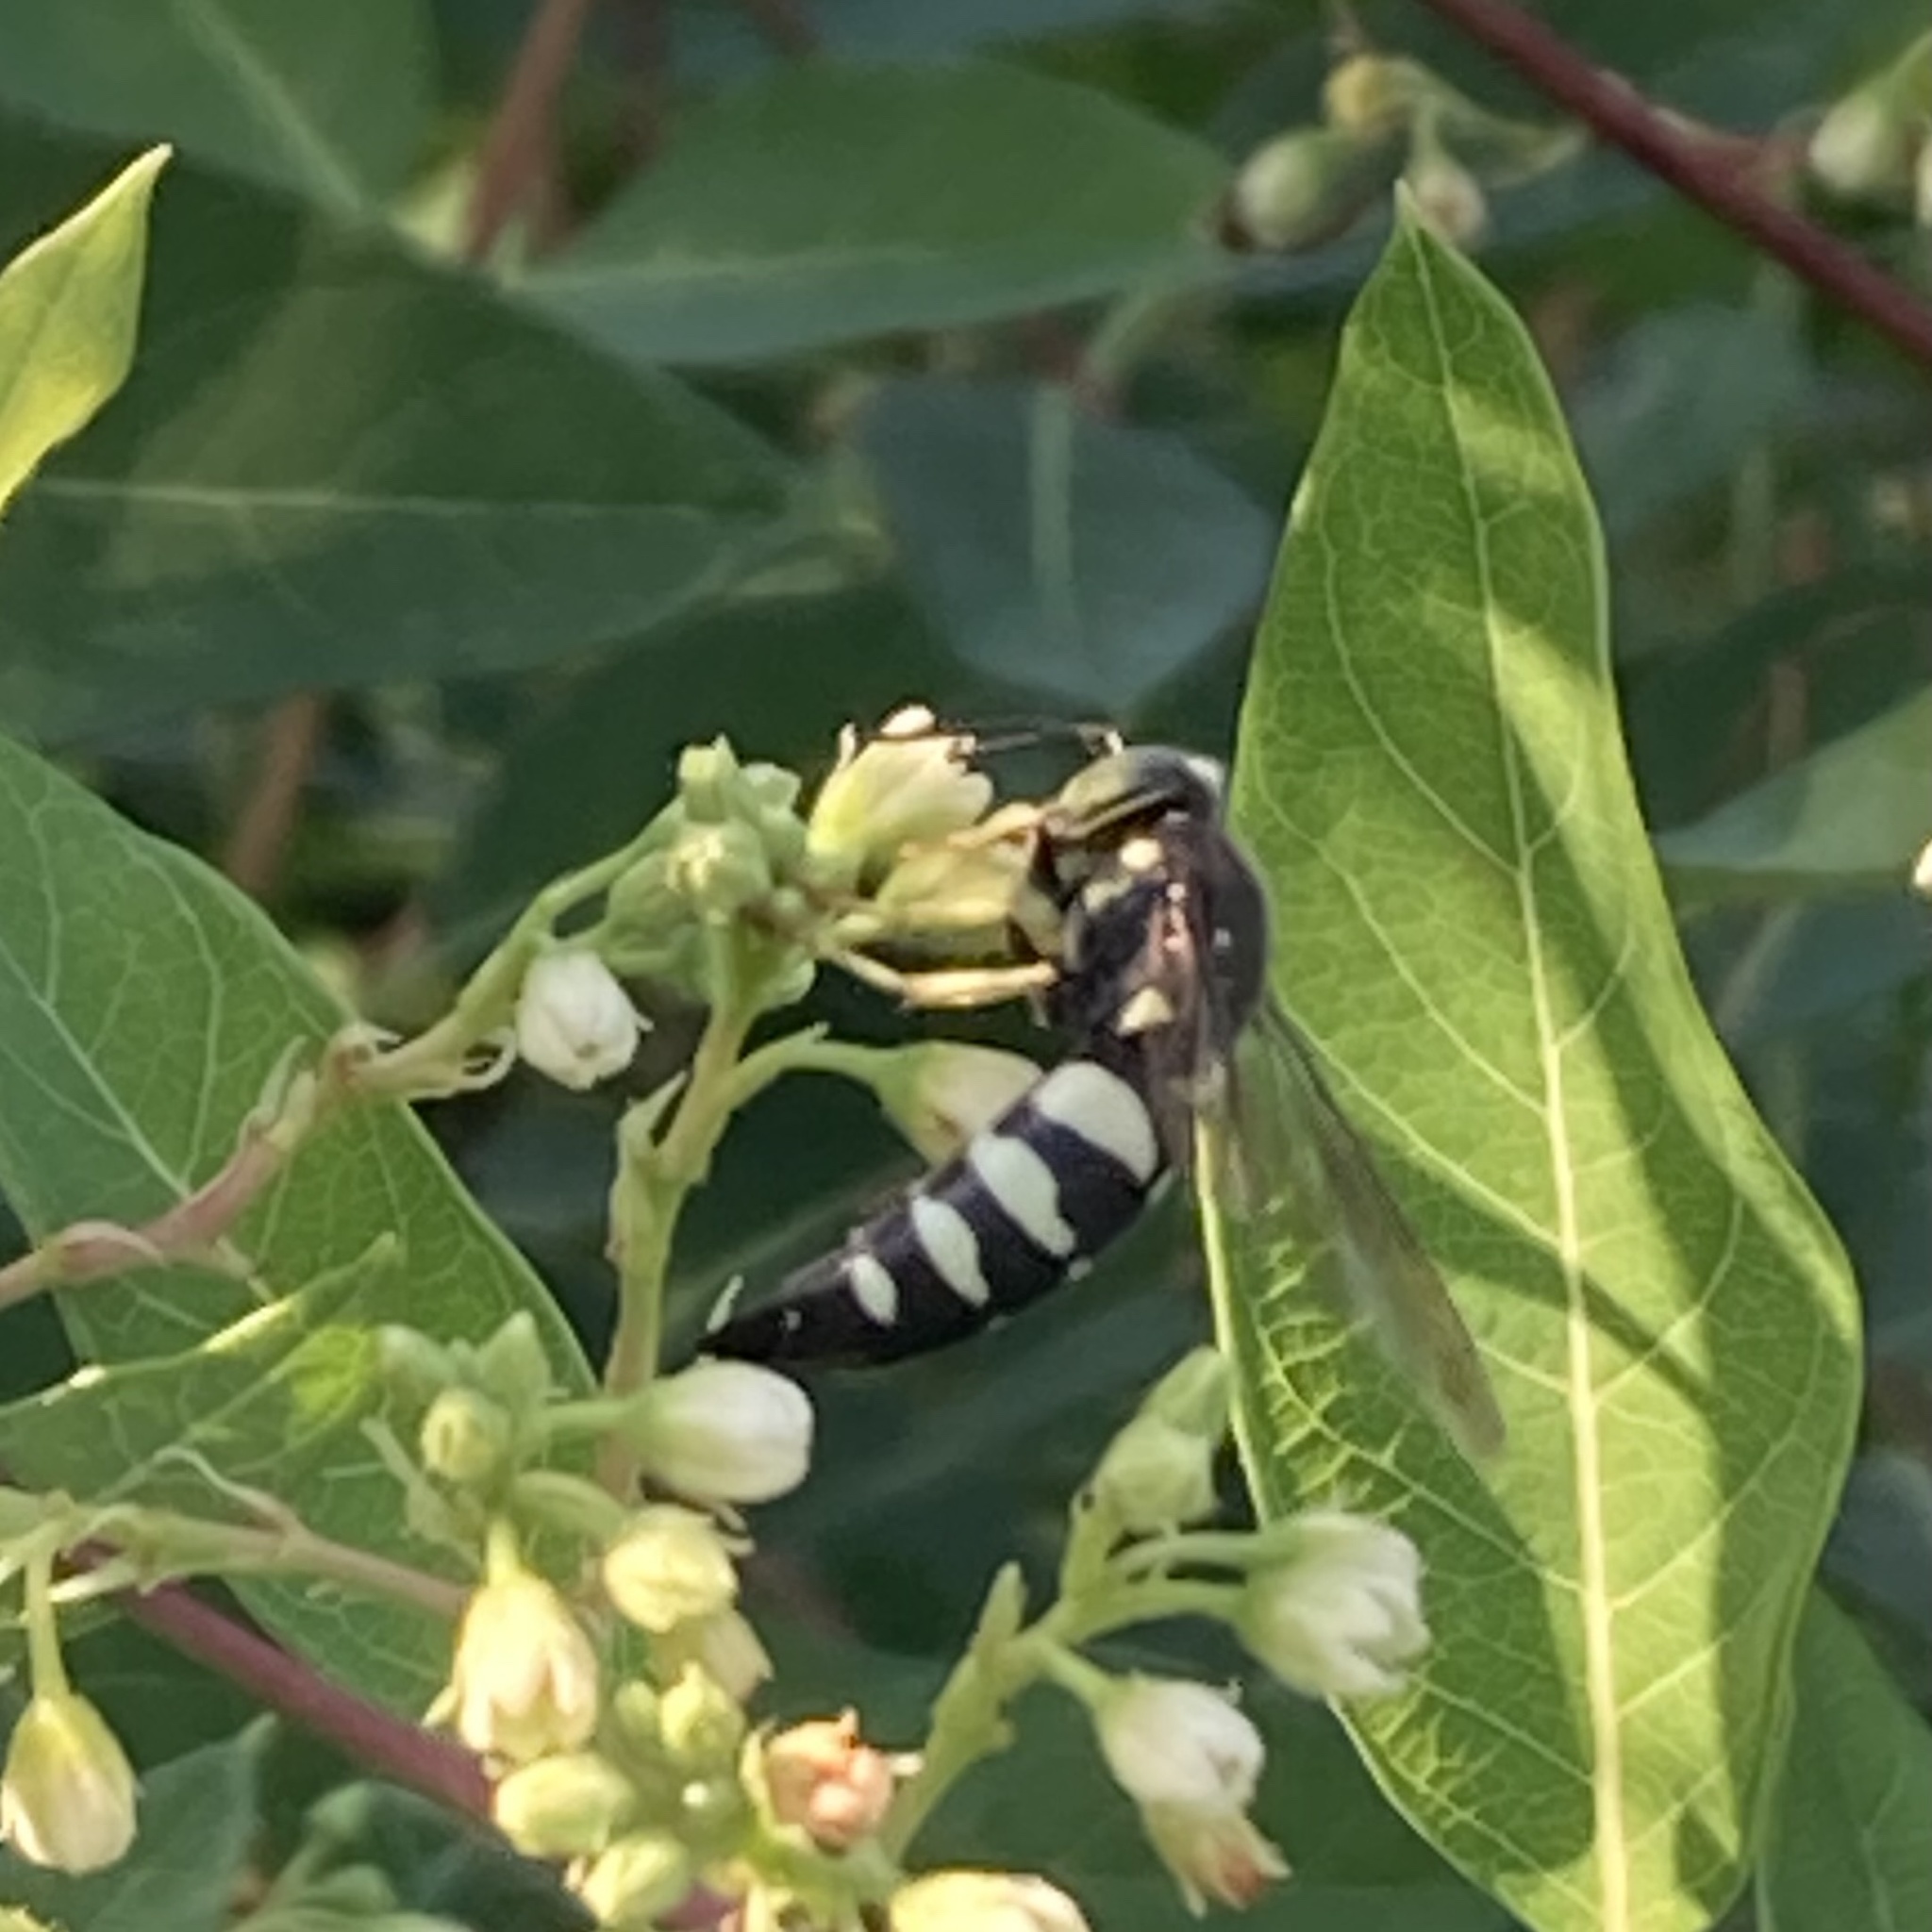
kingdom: Animalia
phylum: Arthropoda
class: Insecta
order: Hymenoptera
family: Crabronidae
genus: Bicyrtes
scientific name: Bicyrtes quadrifasciatus
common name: Four-banded stink bug hunter wasp
